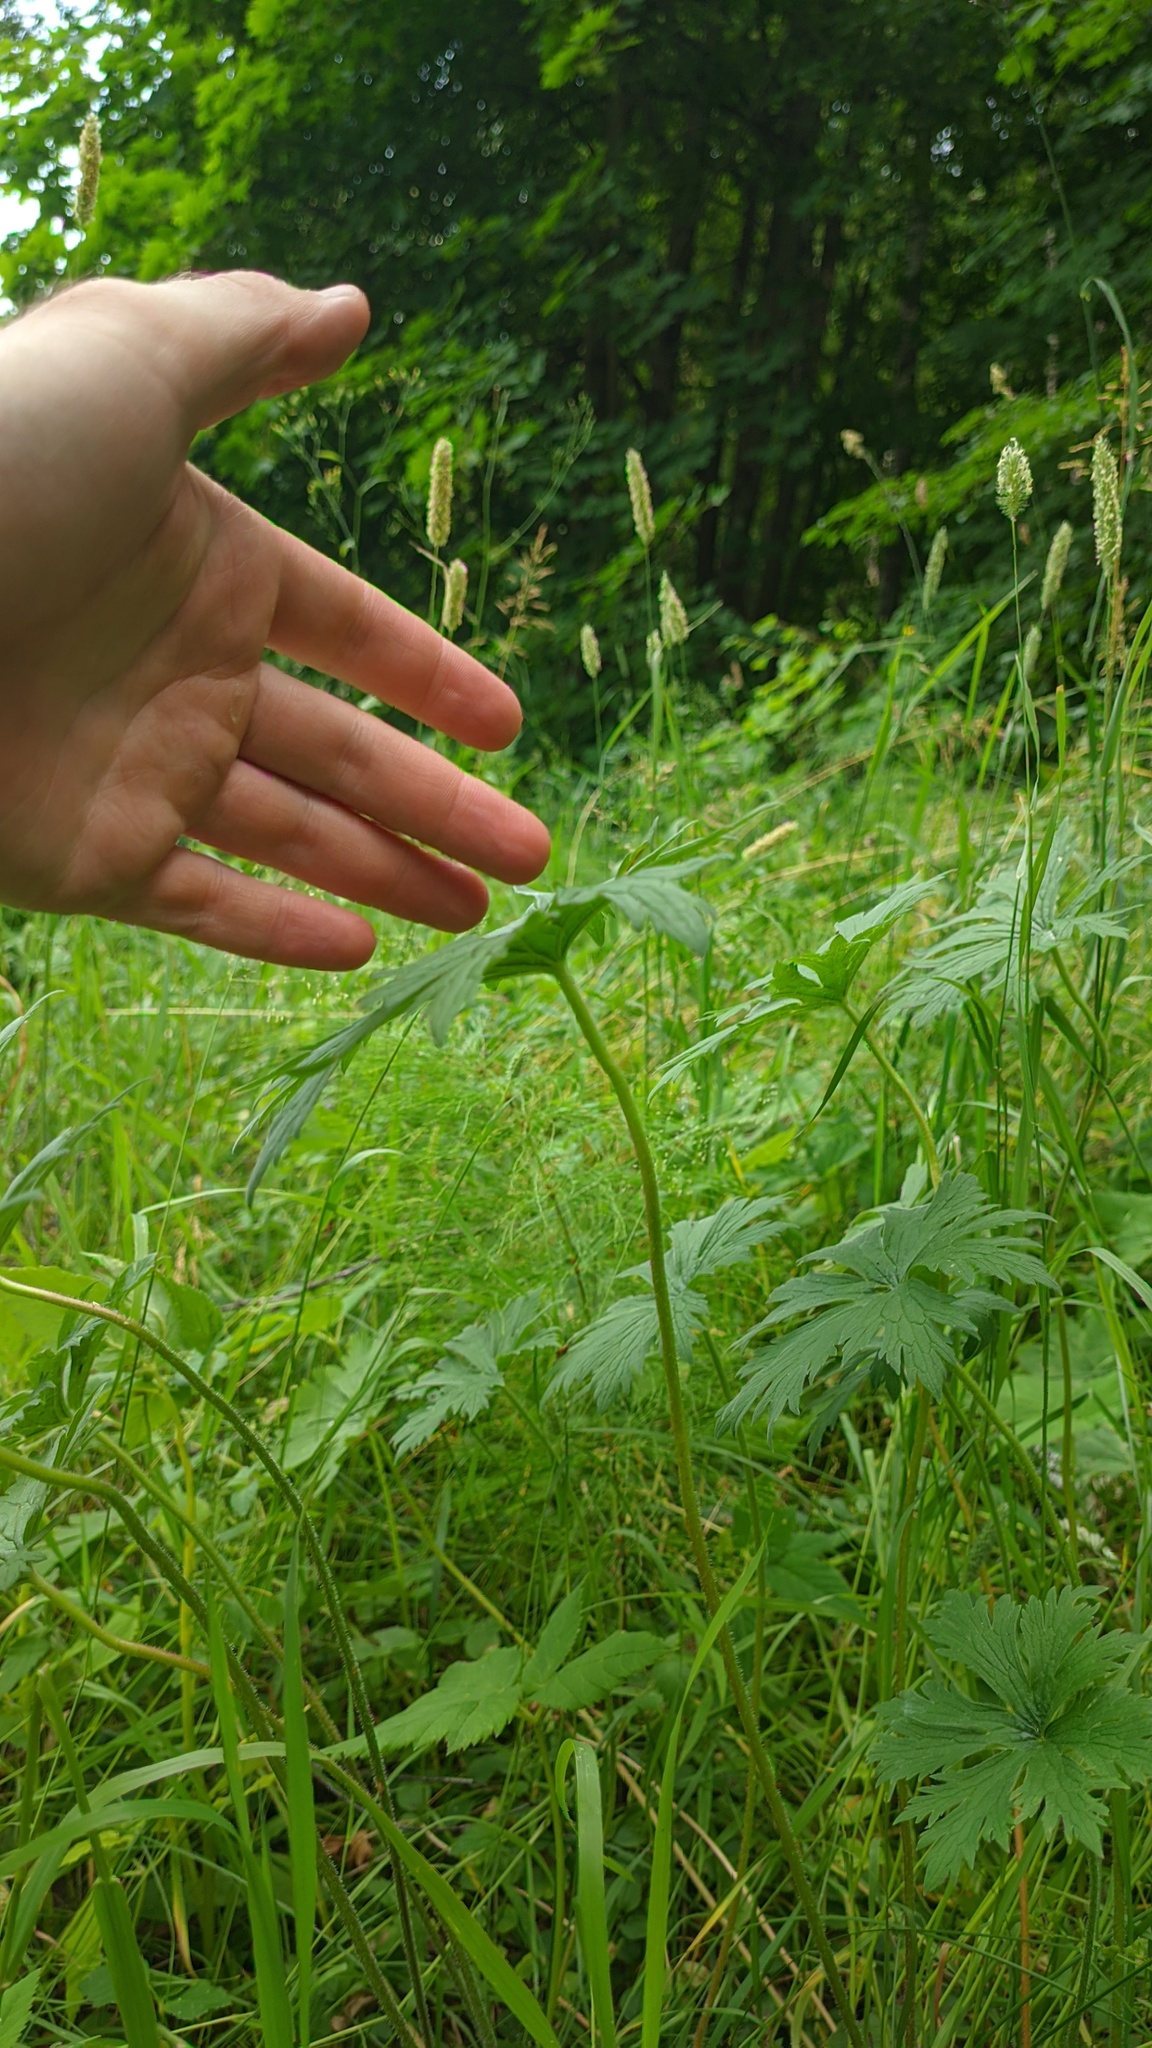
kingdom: Plantae
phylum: Tracheophyta
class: Magnoliopsida
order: Geraniales
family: Geraniaceae
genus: Geranium
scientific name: Geranium
